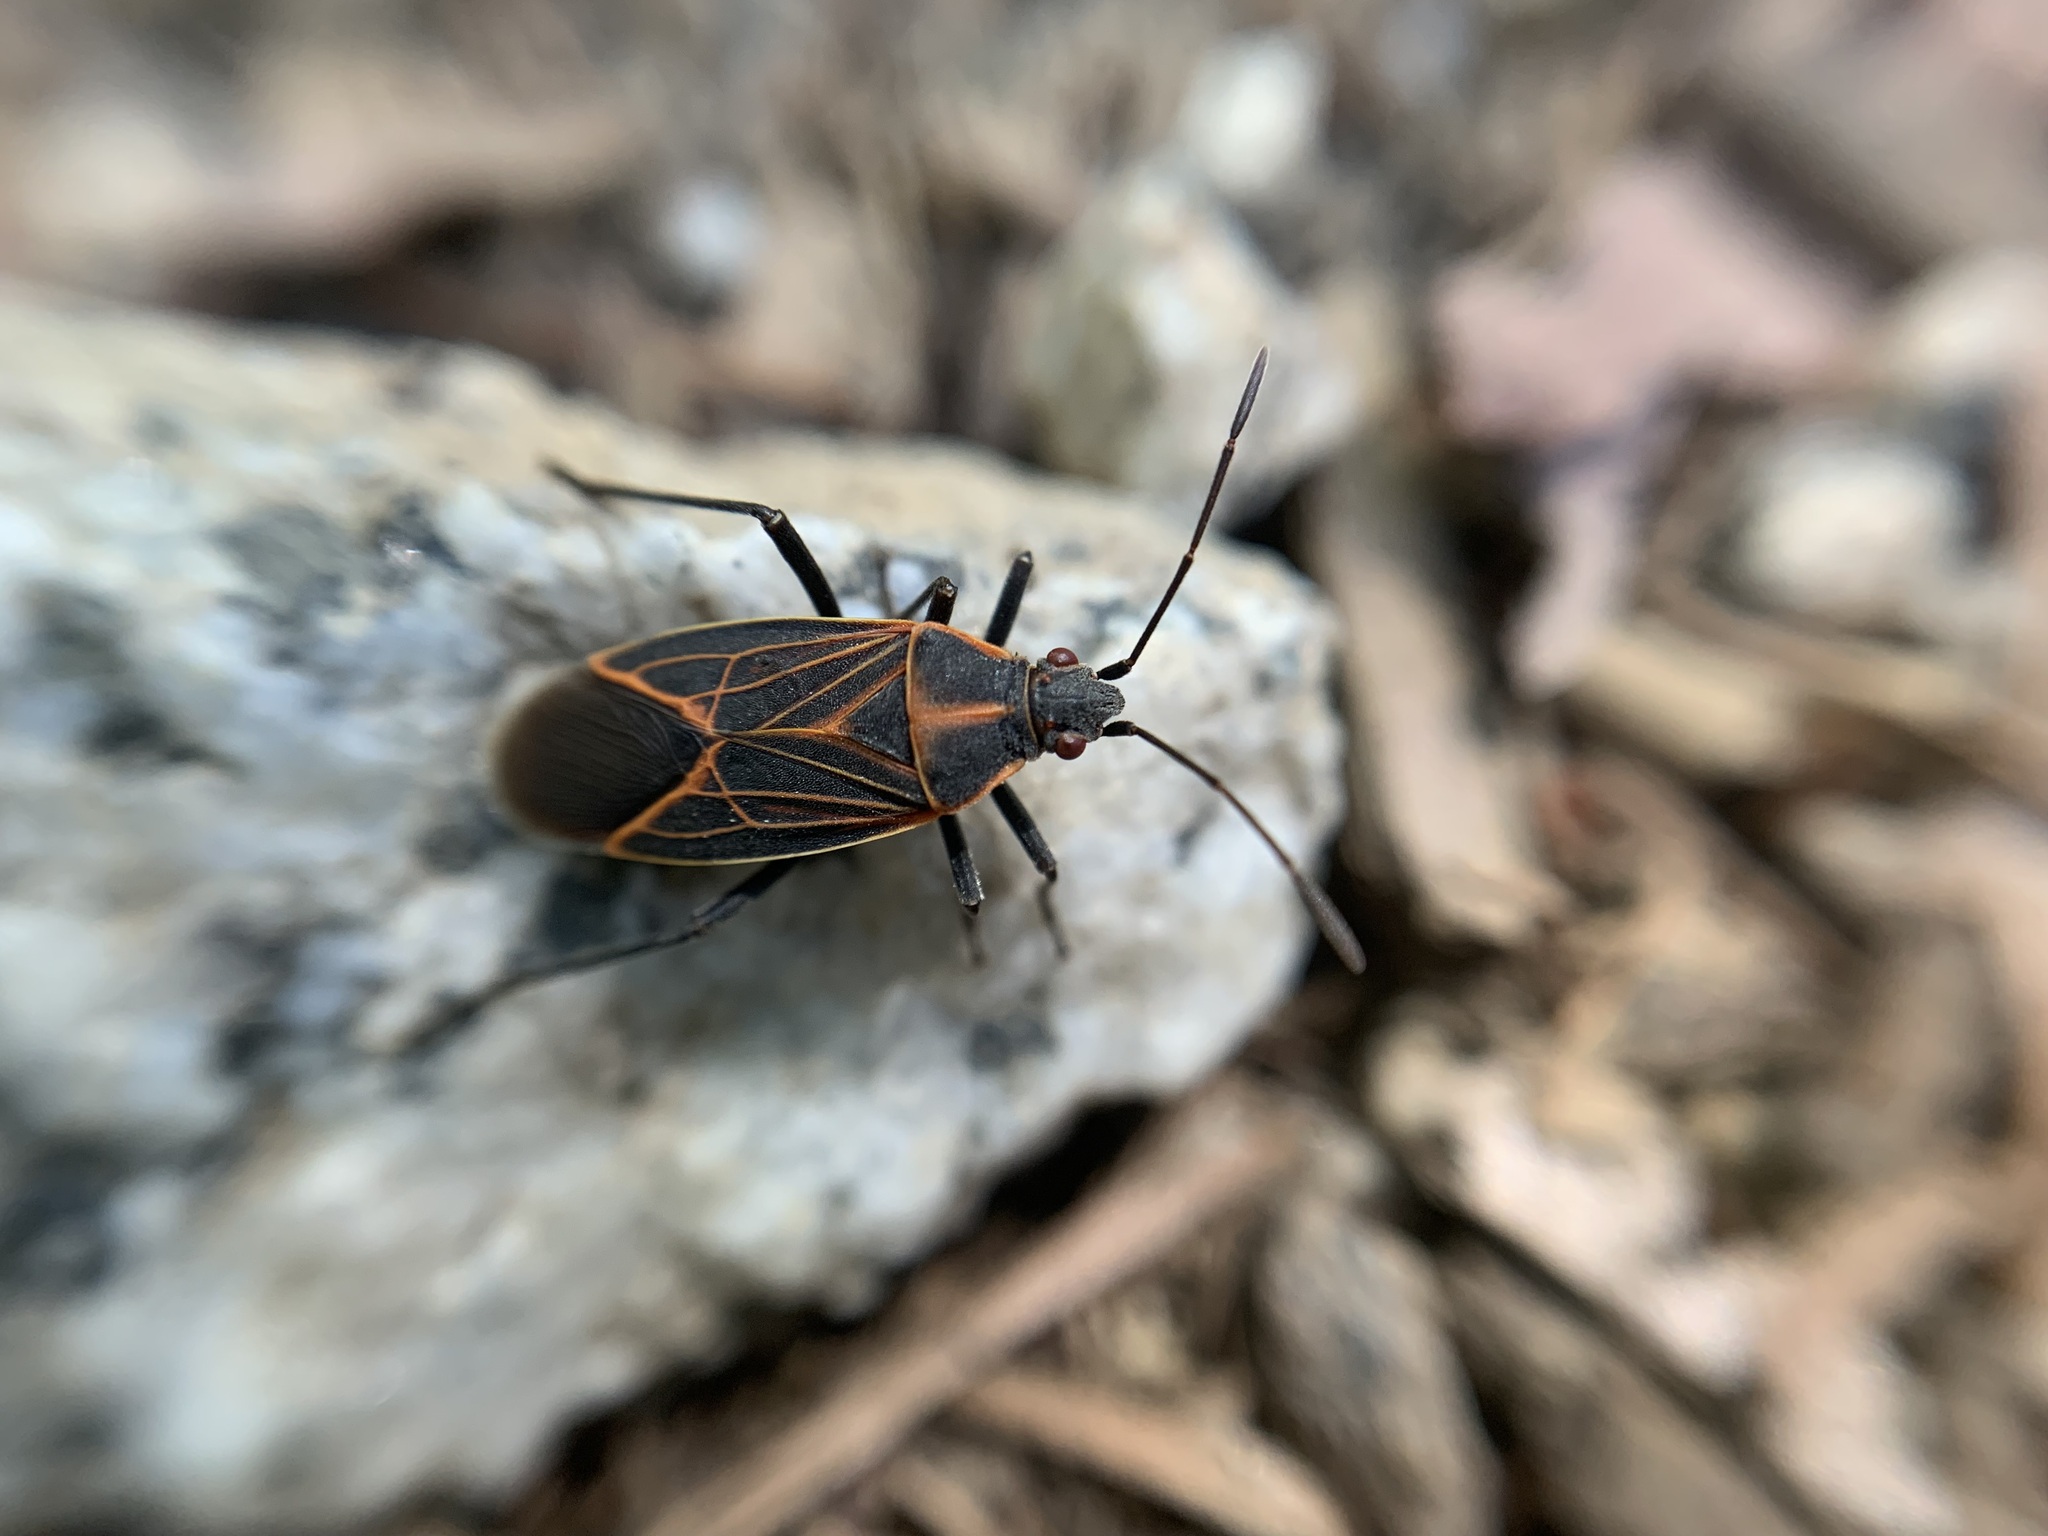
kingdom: Animalia
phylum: Arthropoda
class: Insecta
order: Hemiptera
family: Rhopalidae
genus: Boisea
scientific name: Boisea rubrolineata
